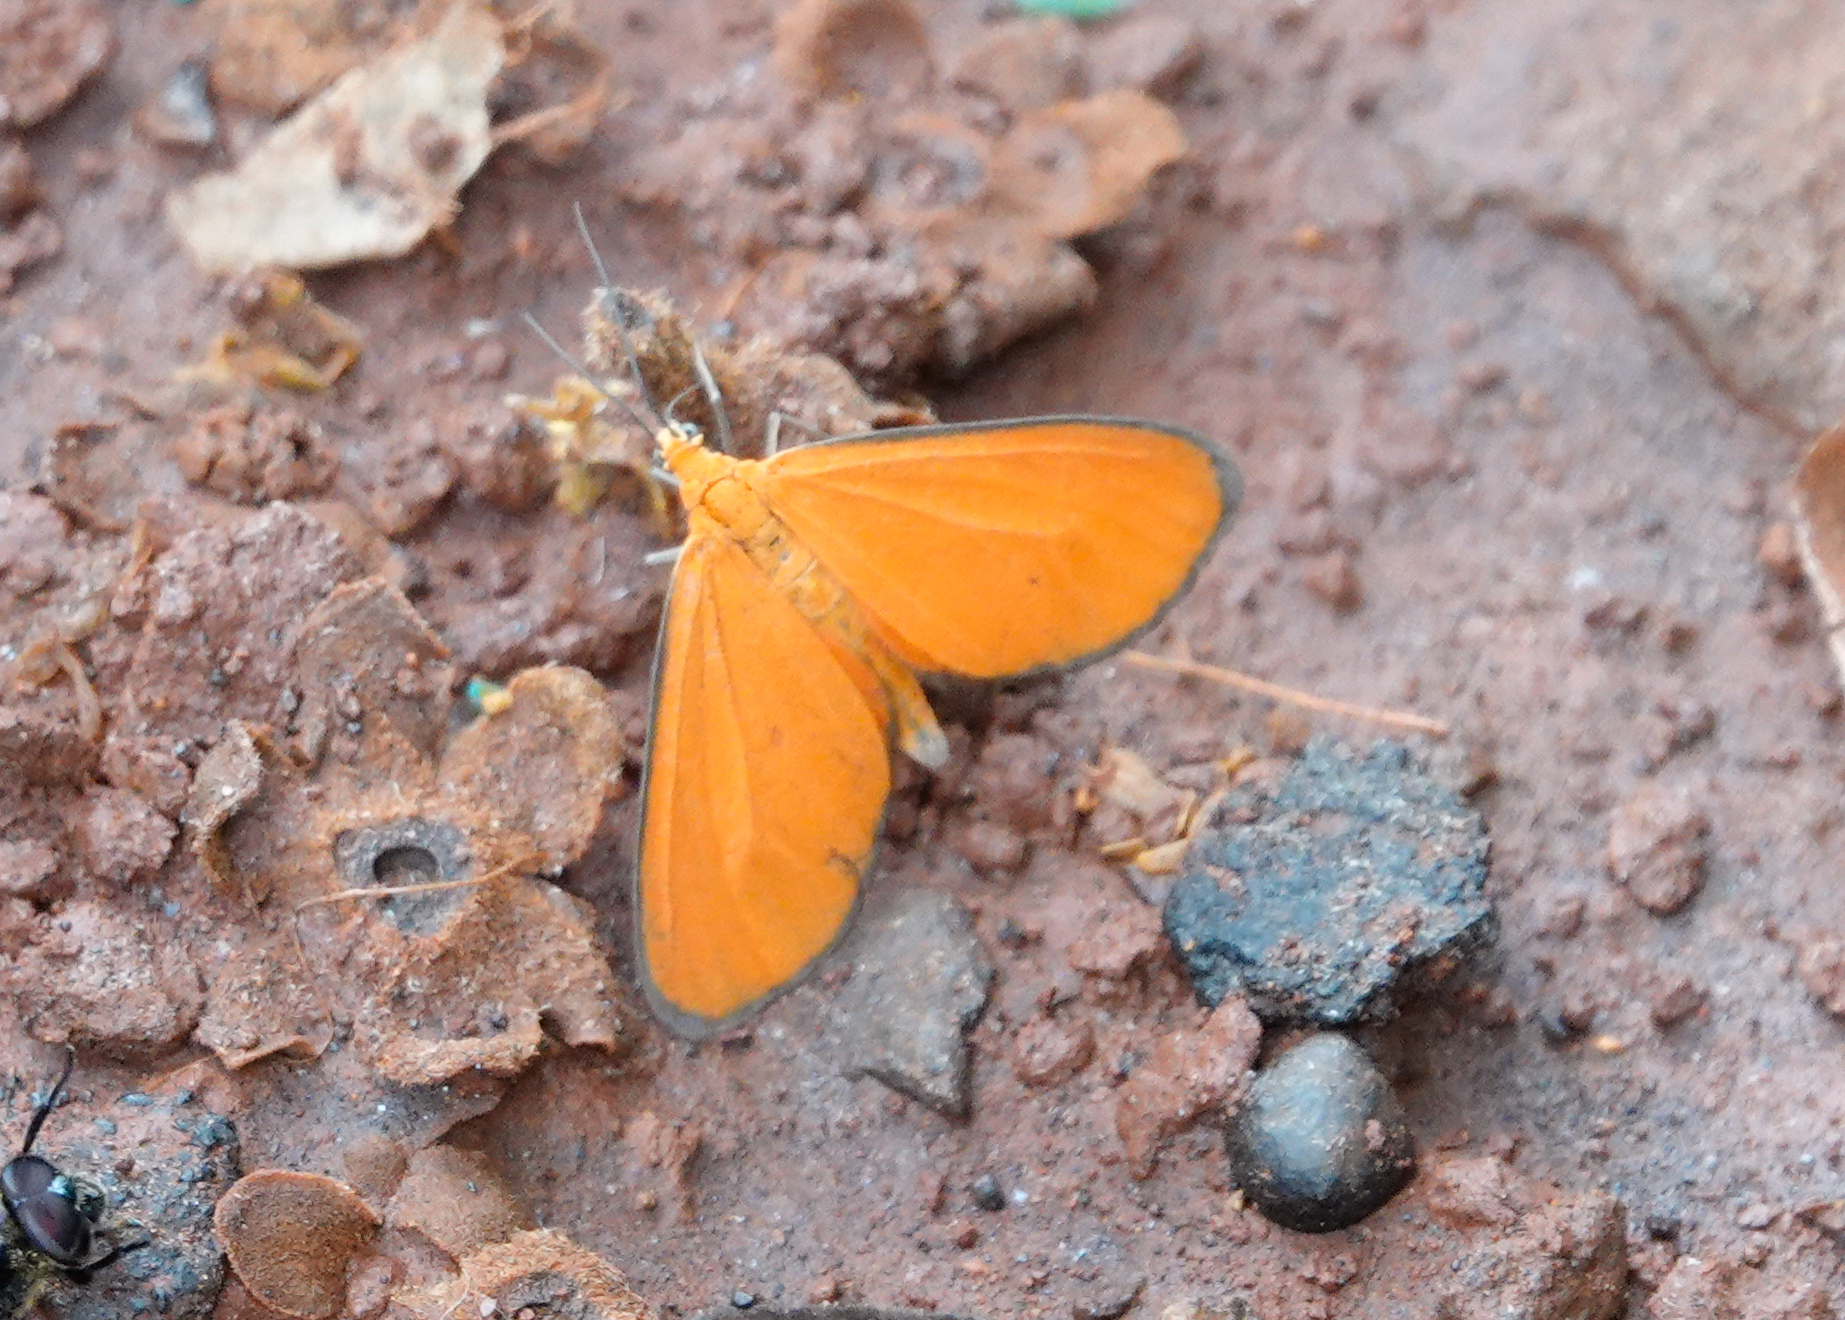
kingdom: Animalia
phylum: Arthropoda
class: Insecta
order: Lepidoptera
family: Geometridae
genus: Eudulophasia
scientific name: Eudulophasia invaria
